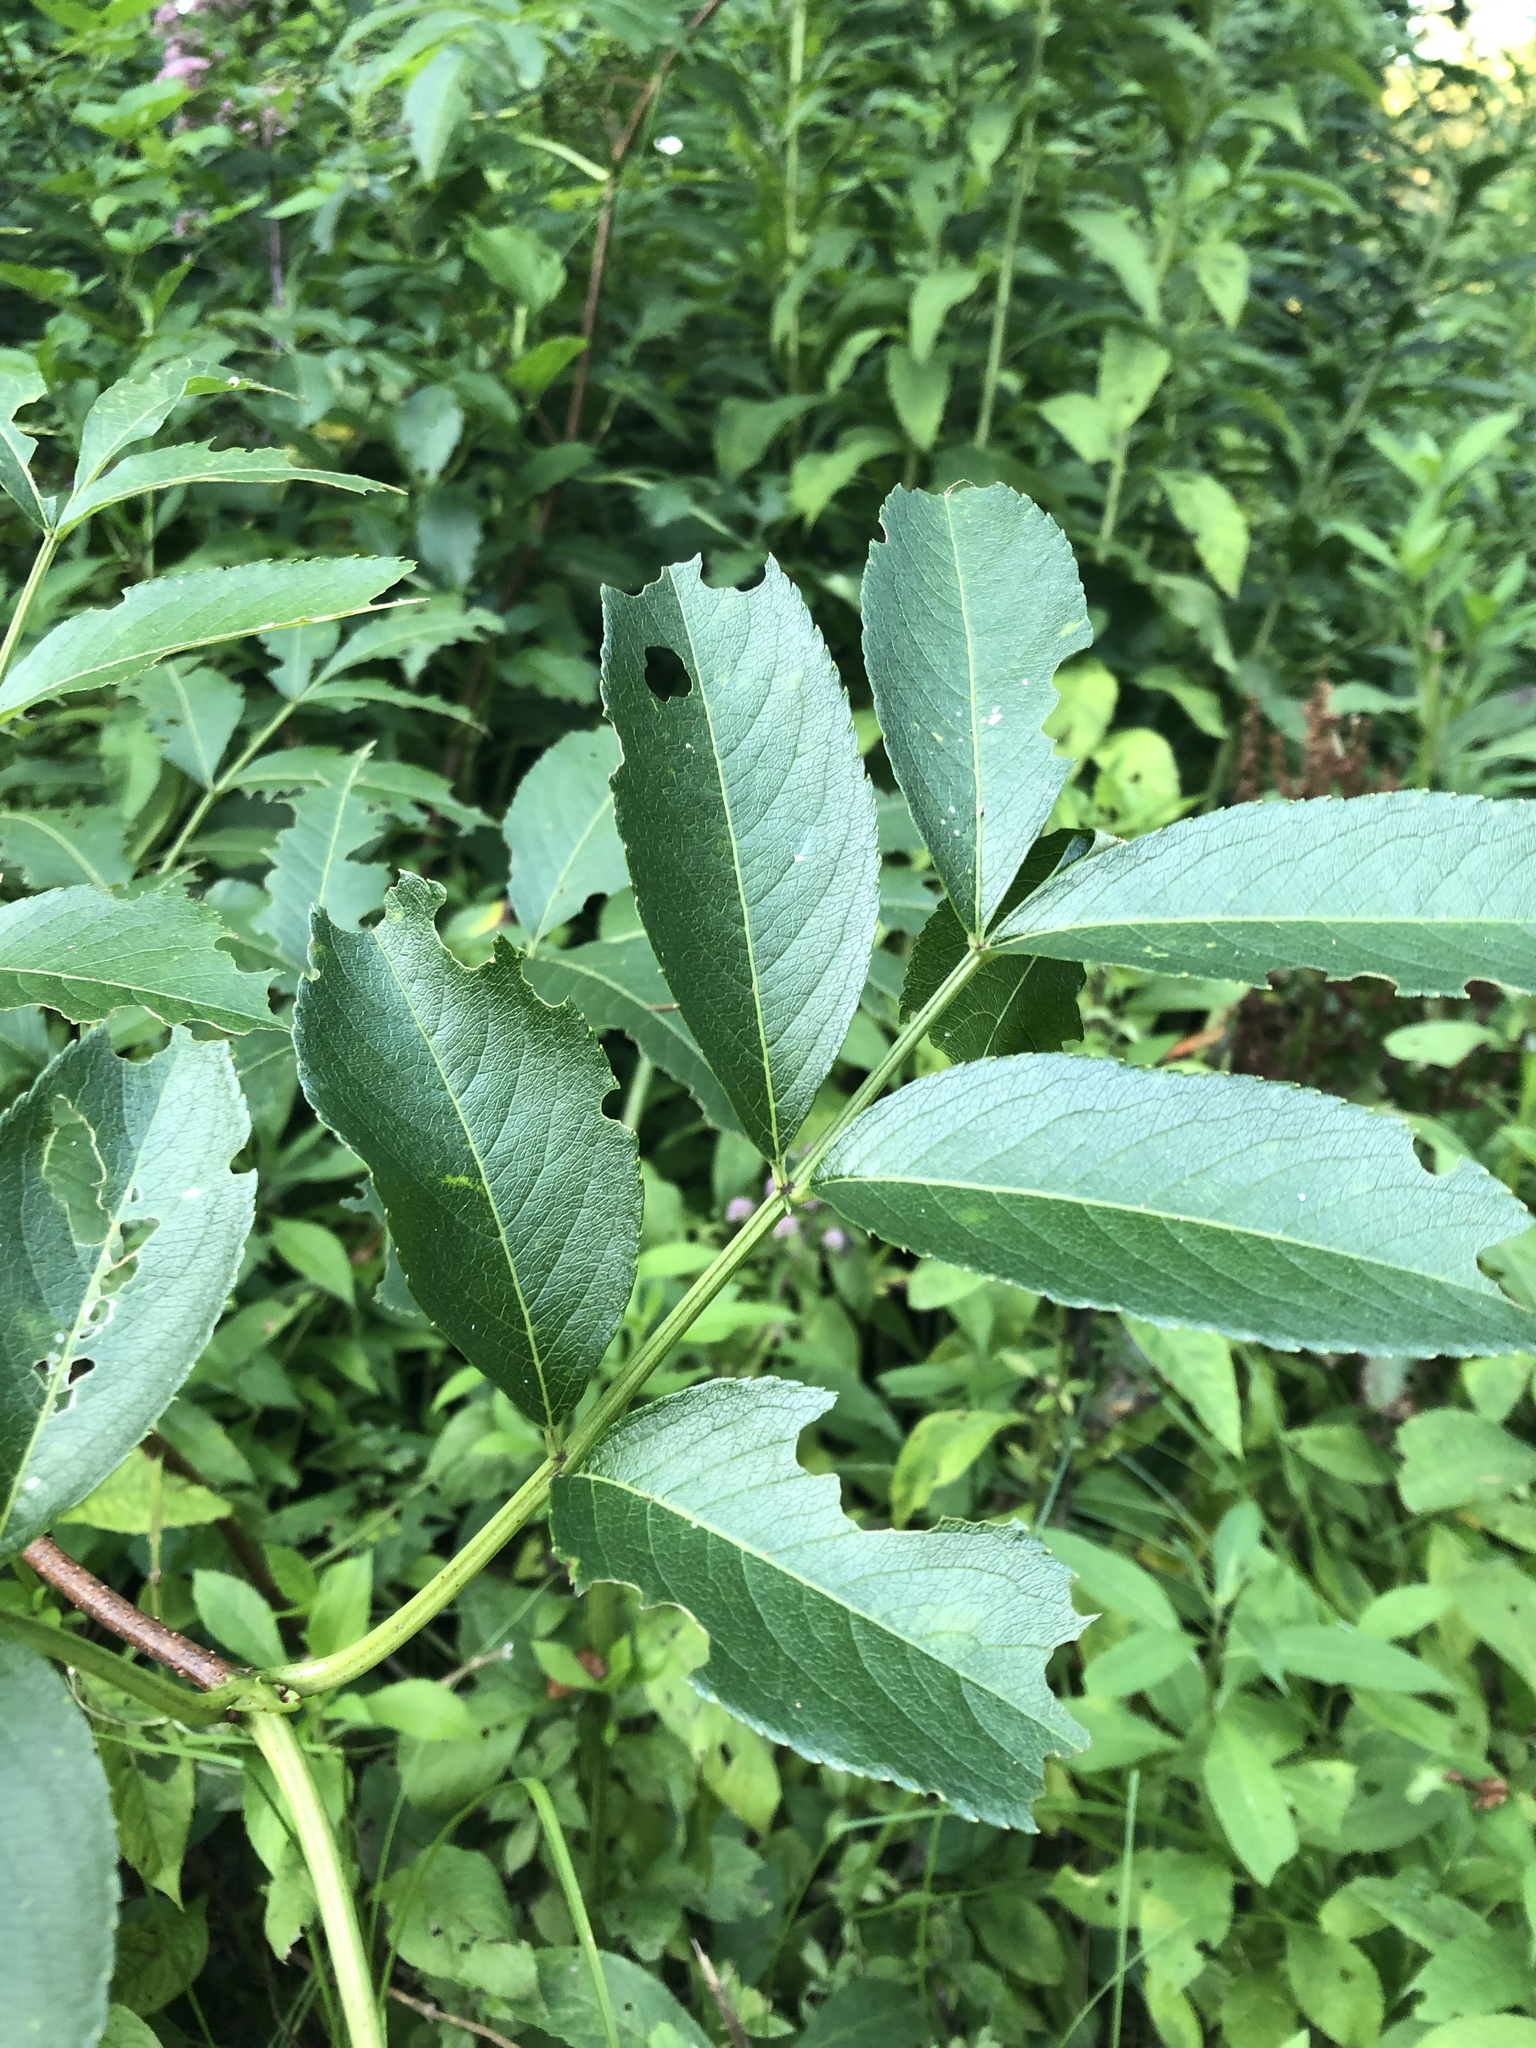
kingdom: Plantae
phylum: Tracheophyta
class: Magnoliopsida
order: Dipsacales
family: Viburnaceae
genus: Sambucus
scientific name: Sambucus canadensis
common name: American elder
